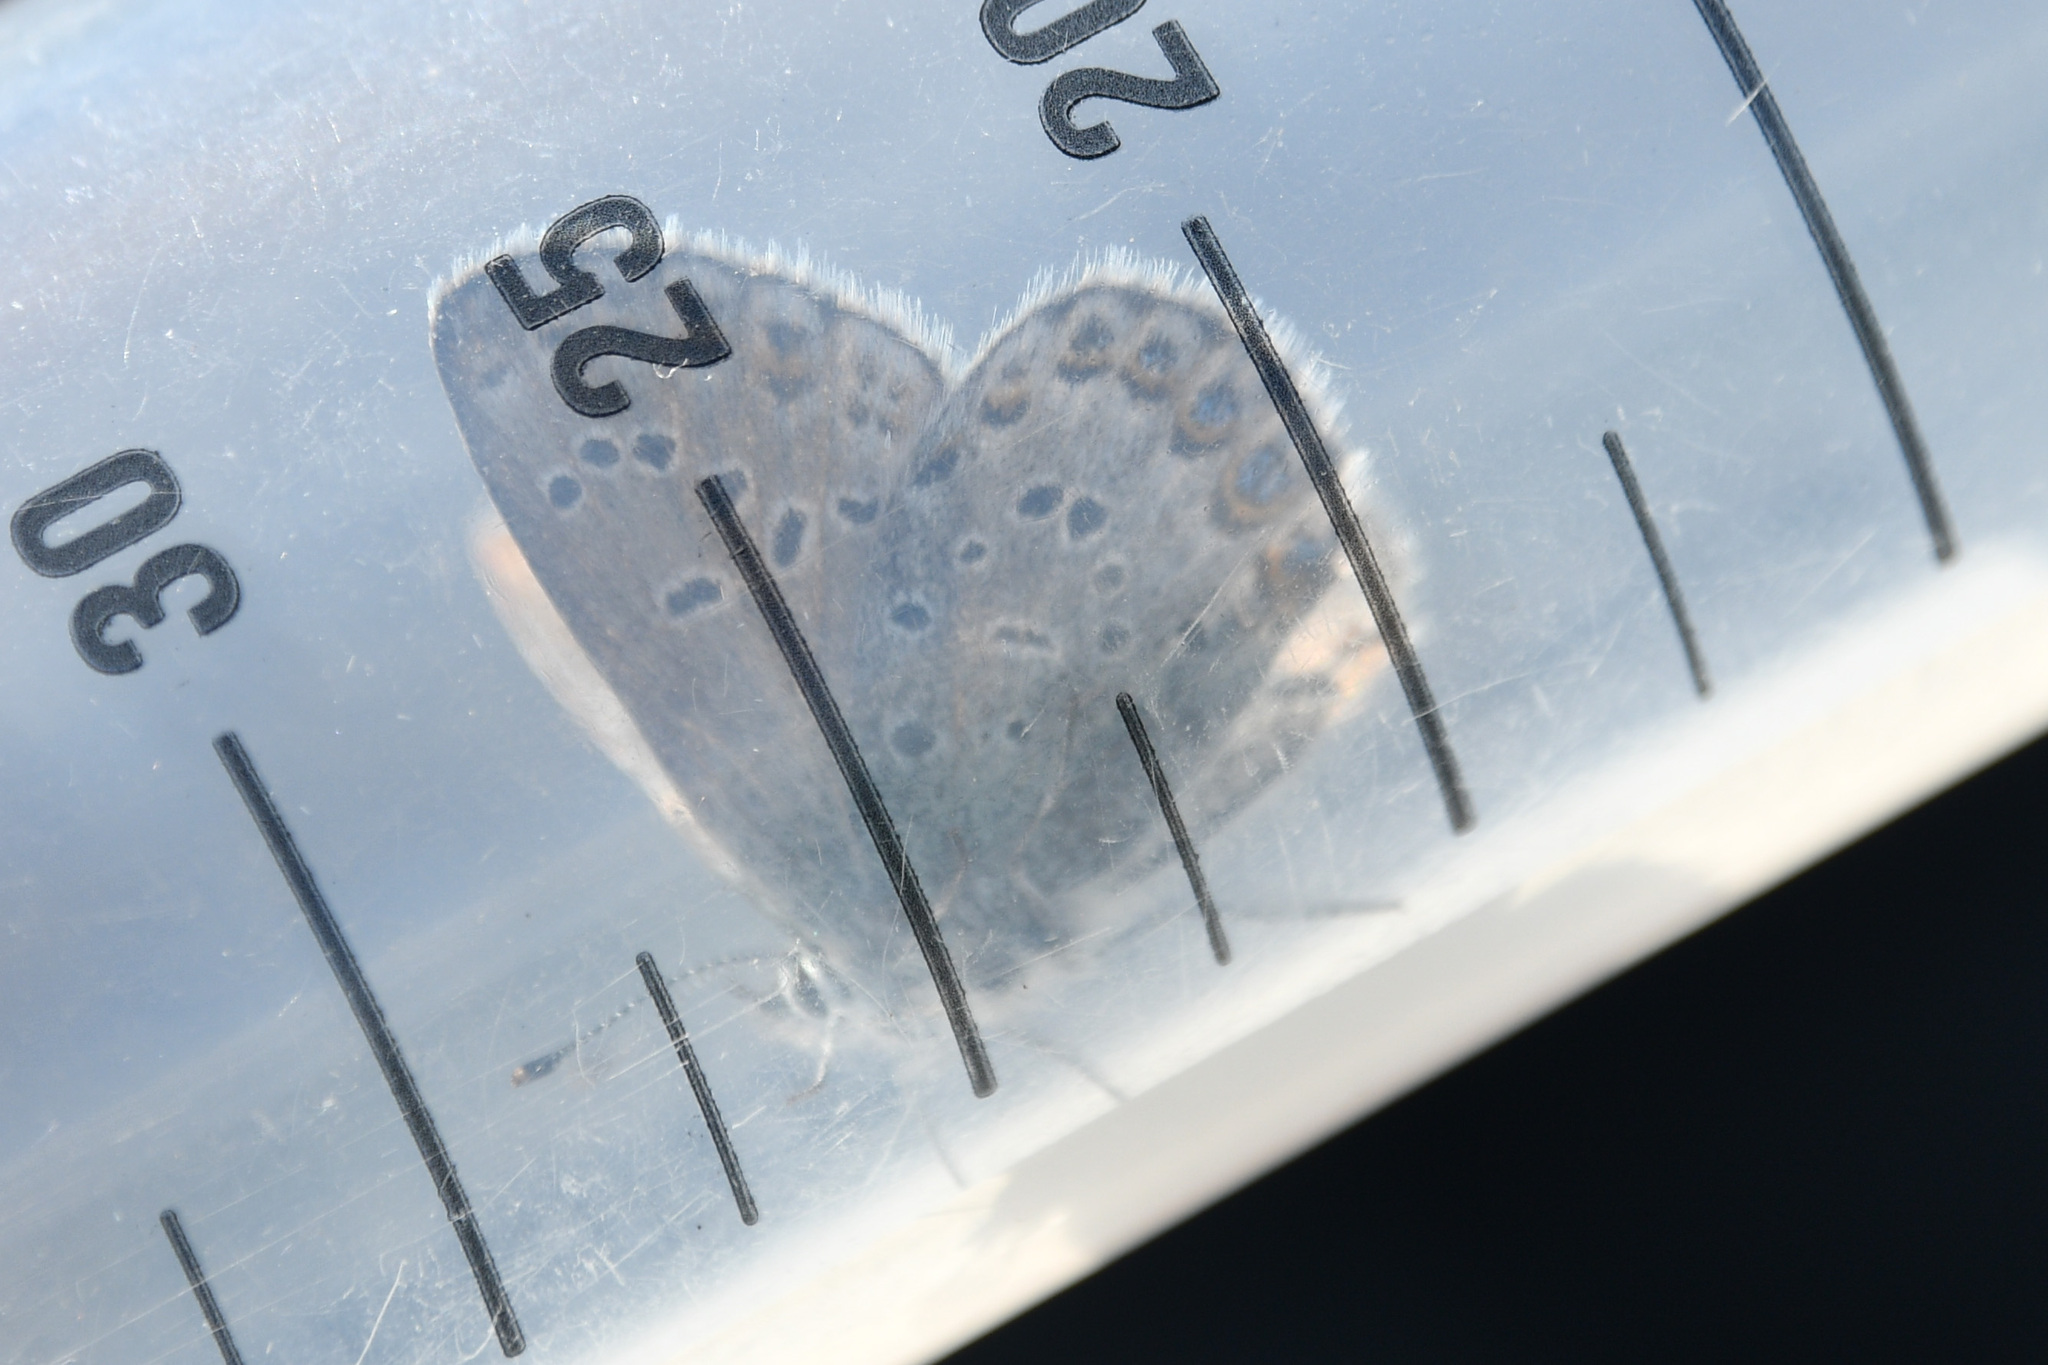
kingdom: Animalia
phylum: Arthropoda
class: Insecta
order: Lepidoptera
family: Lycaenidae
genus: Lycaeides
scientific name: Lycaeides idas
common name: Northern blue
